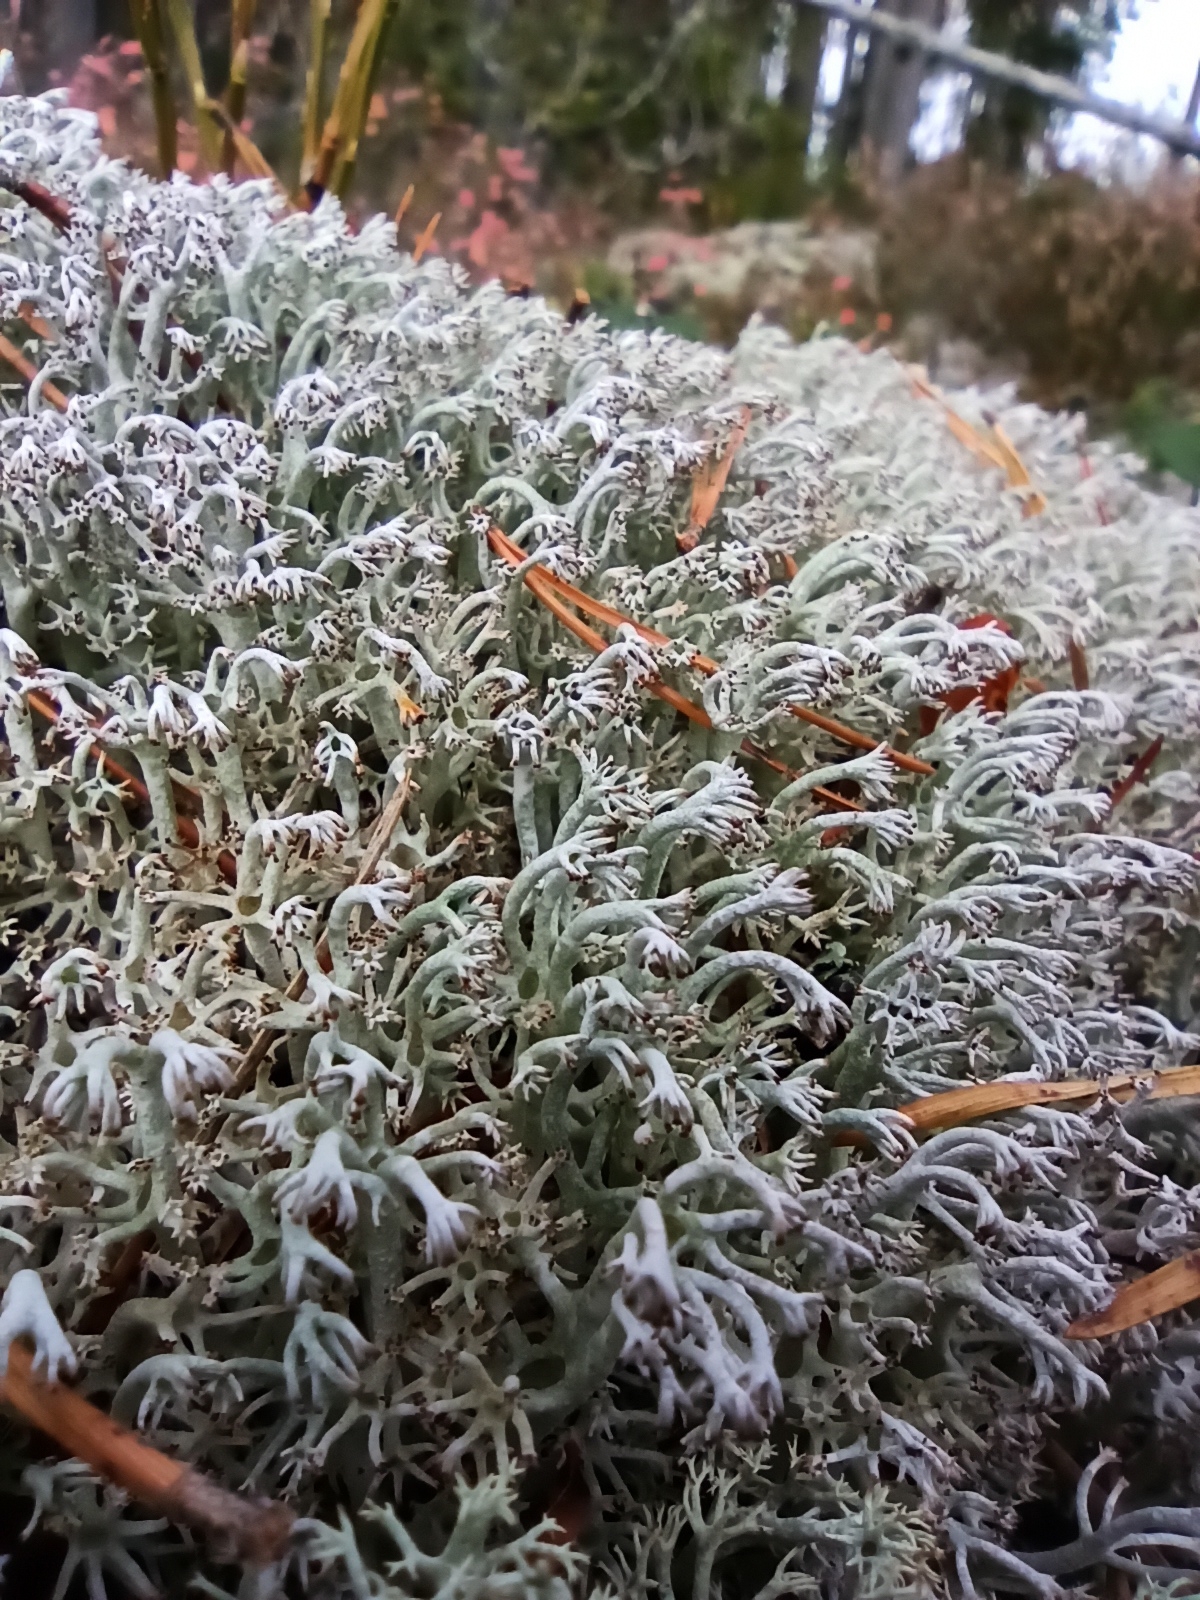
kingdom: Fungi
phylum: Ascomycota
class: Lecanoromycetes
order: Lecanorales
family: Cladoniaceae
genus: Cladonia
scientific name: Cladonia rangiferina
